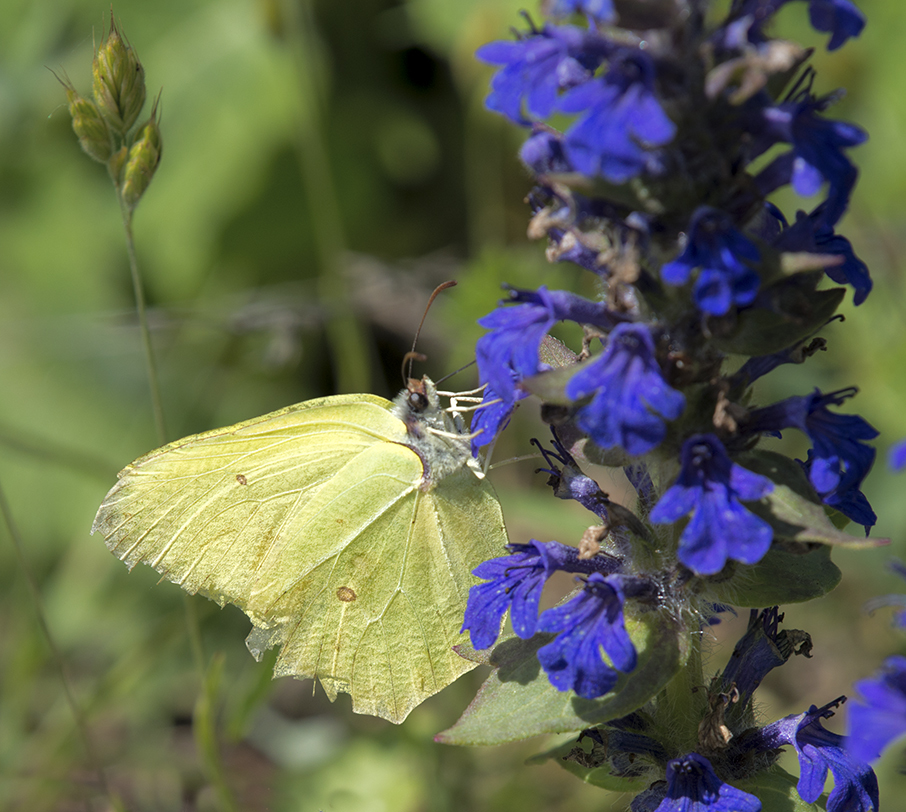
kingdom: Animalia
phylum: Arthropoda
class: Insecta
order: Lepidoptera
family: Pieridae
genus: Gonepteryx
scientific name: Gonepteryx rhamni
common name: Brimstone
